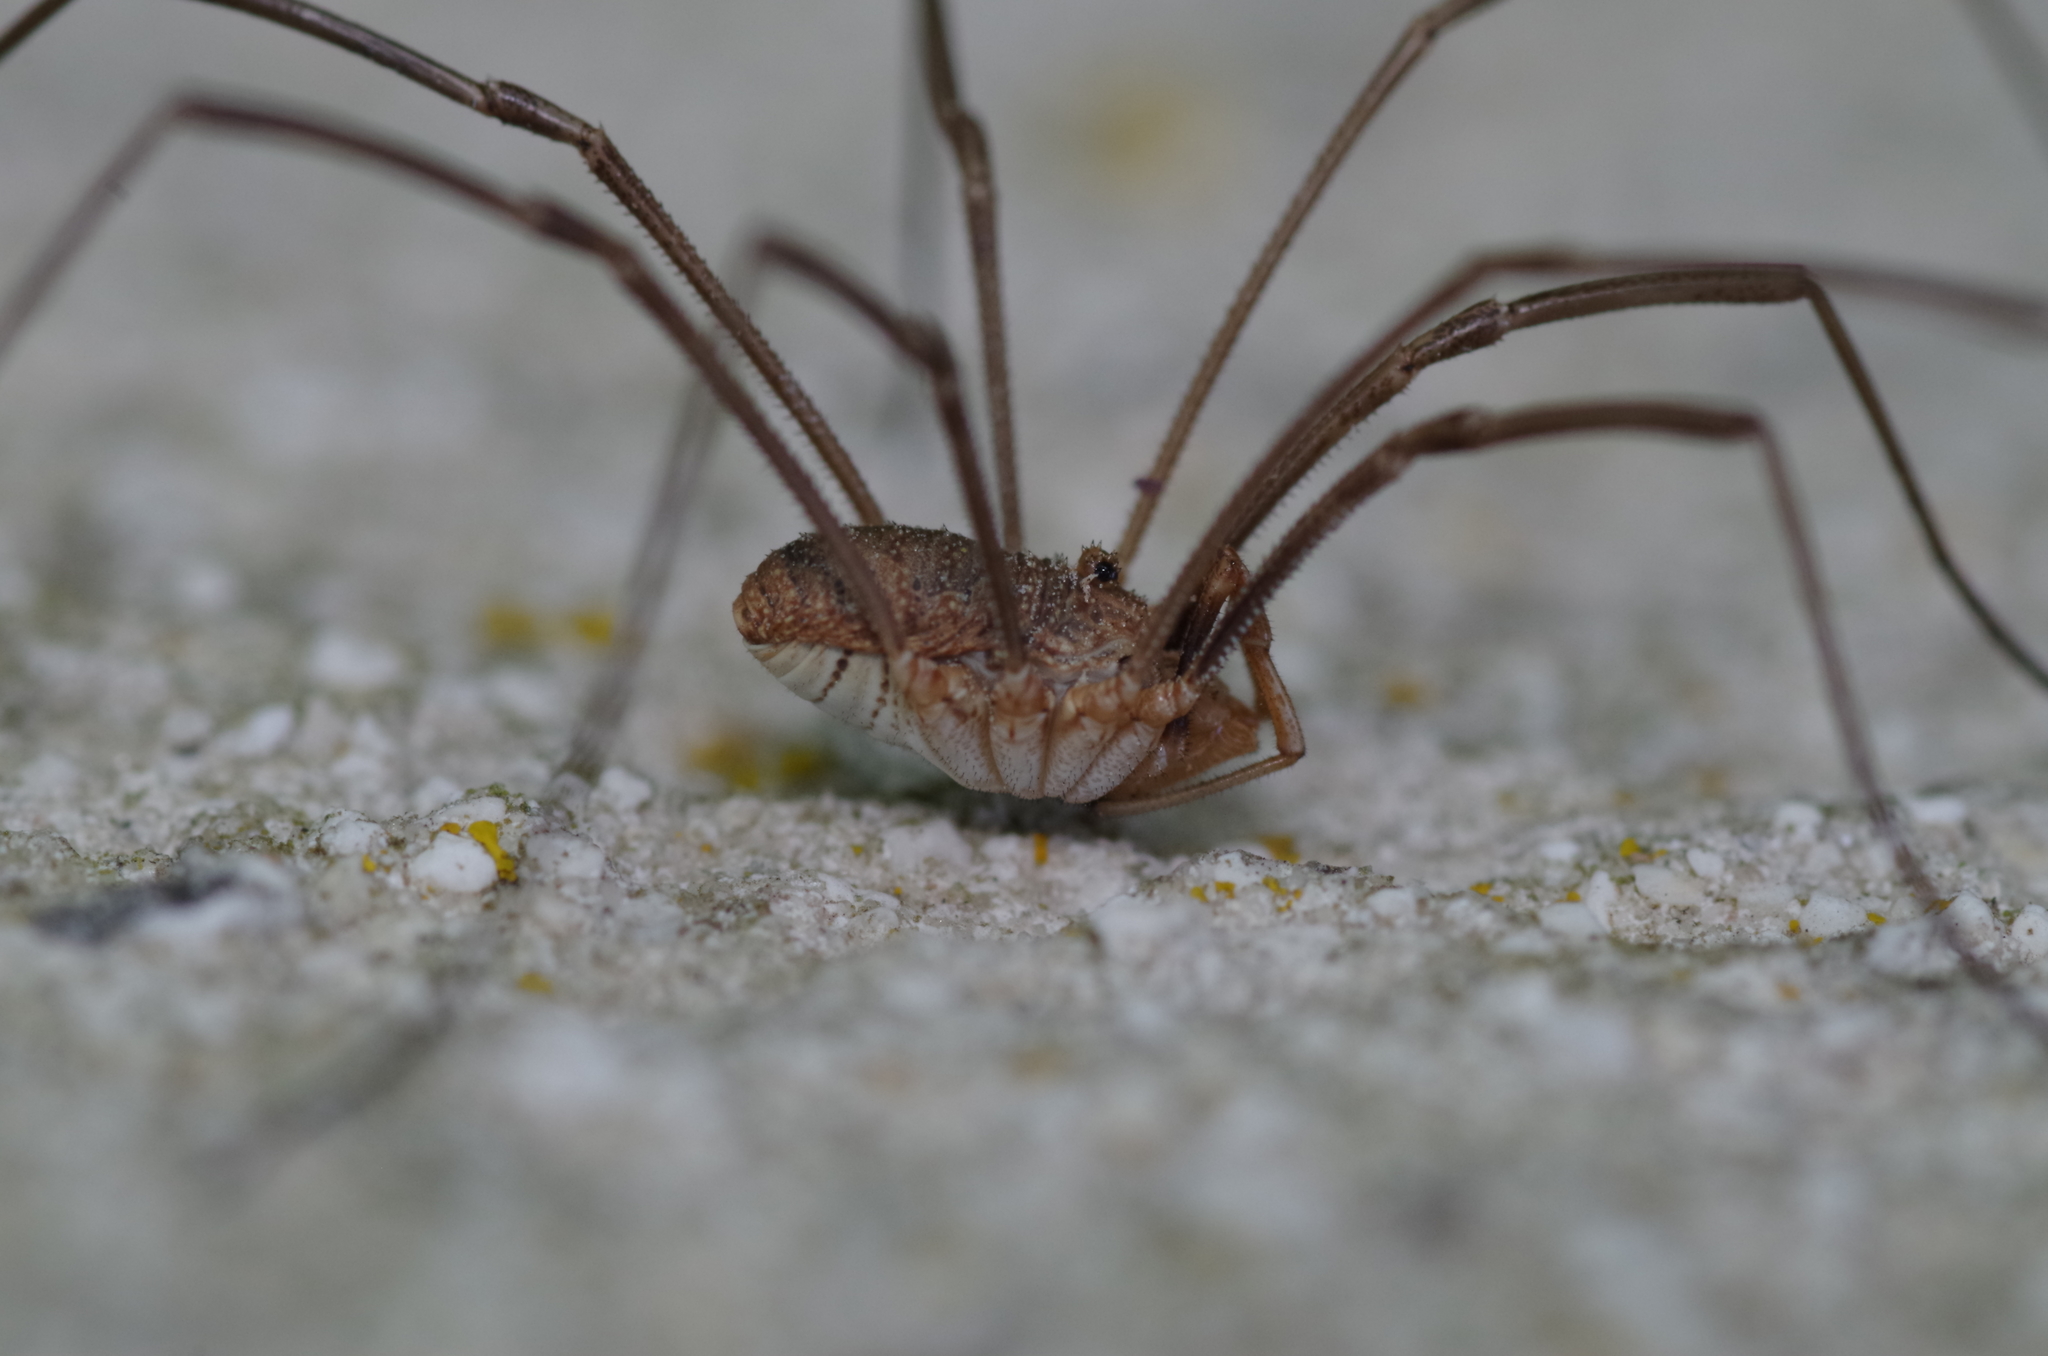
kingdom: Animalia
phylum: Arthropoda
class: Arachnida
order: Opiliones
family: Phalangiidae
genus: Phalangium
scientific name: Phalangium opilio
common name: Daddy longleg
